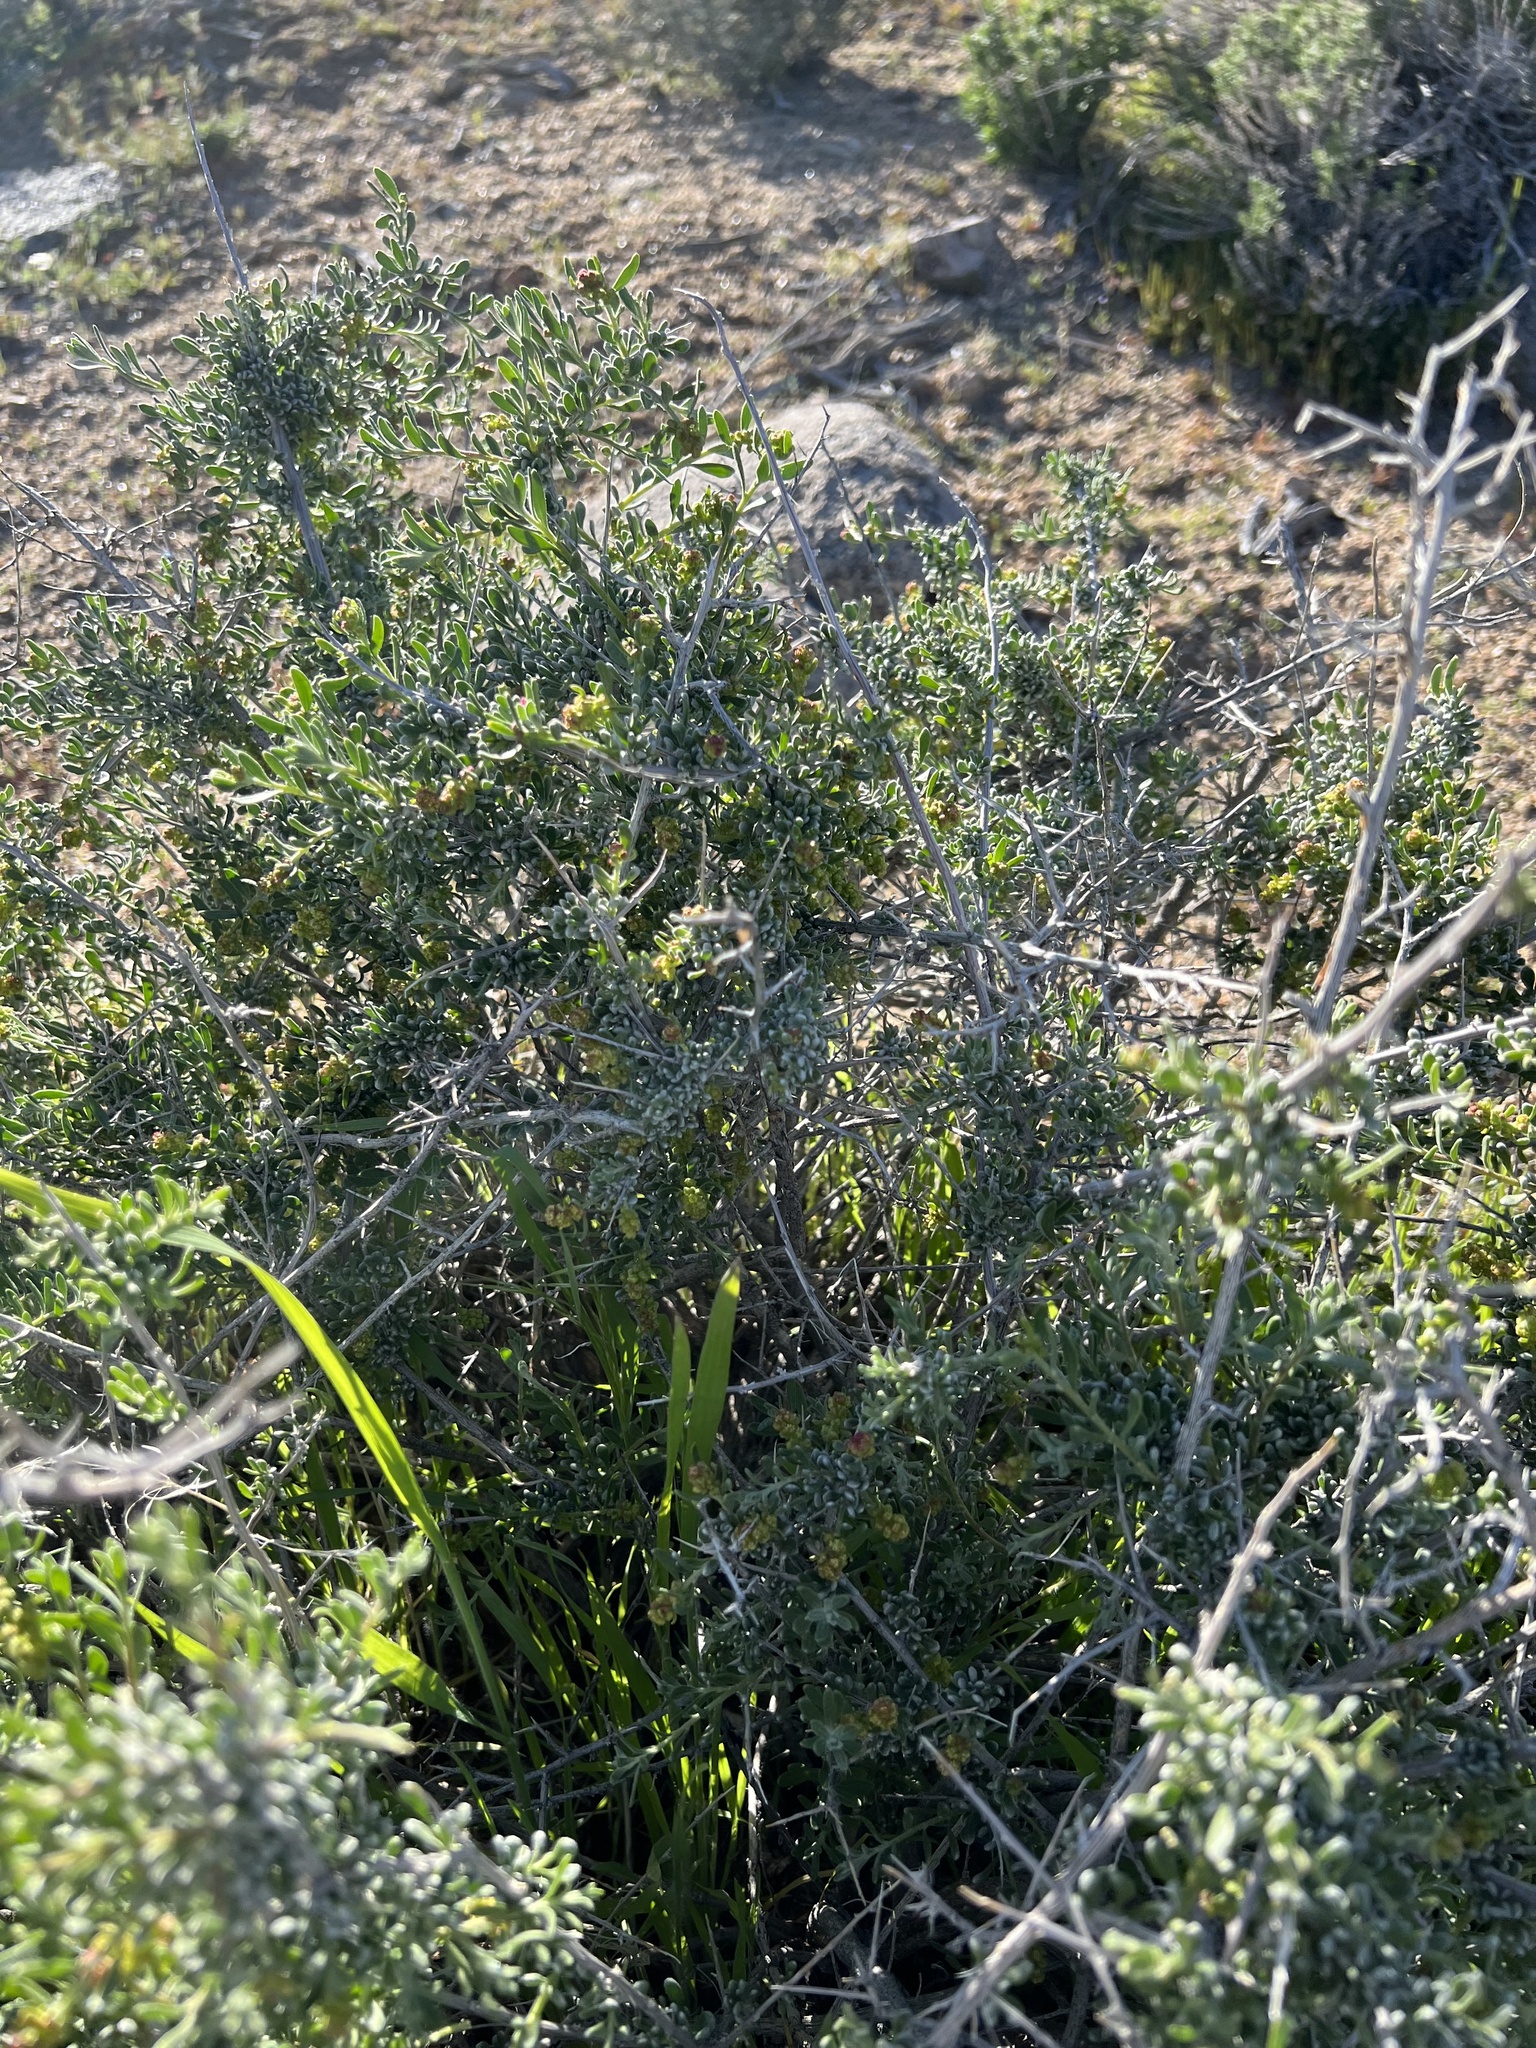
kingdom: Plantae
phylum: Tracheophyta
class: Magnoliopsida
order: Caryophyllales
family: Amaranthaceae
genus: Grayia
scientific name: Grayia spinosa
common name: Spiny hopsage
